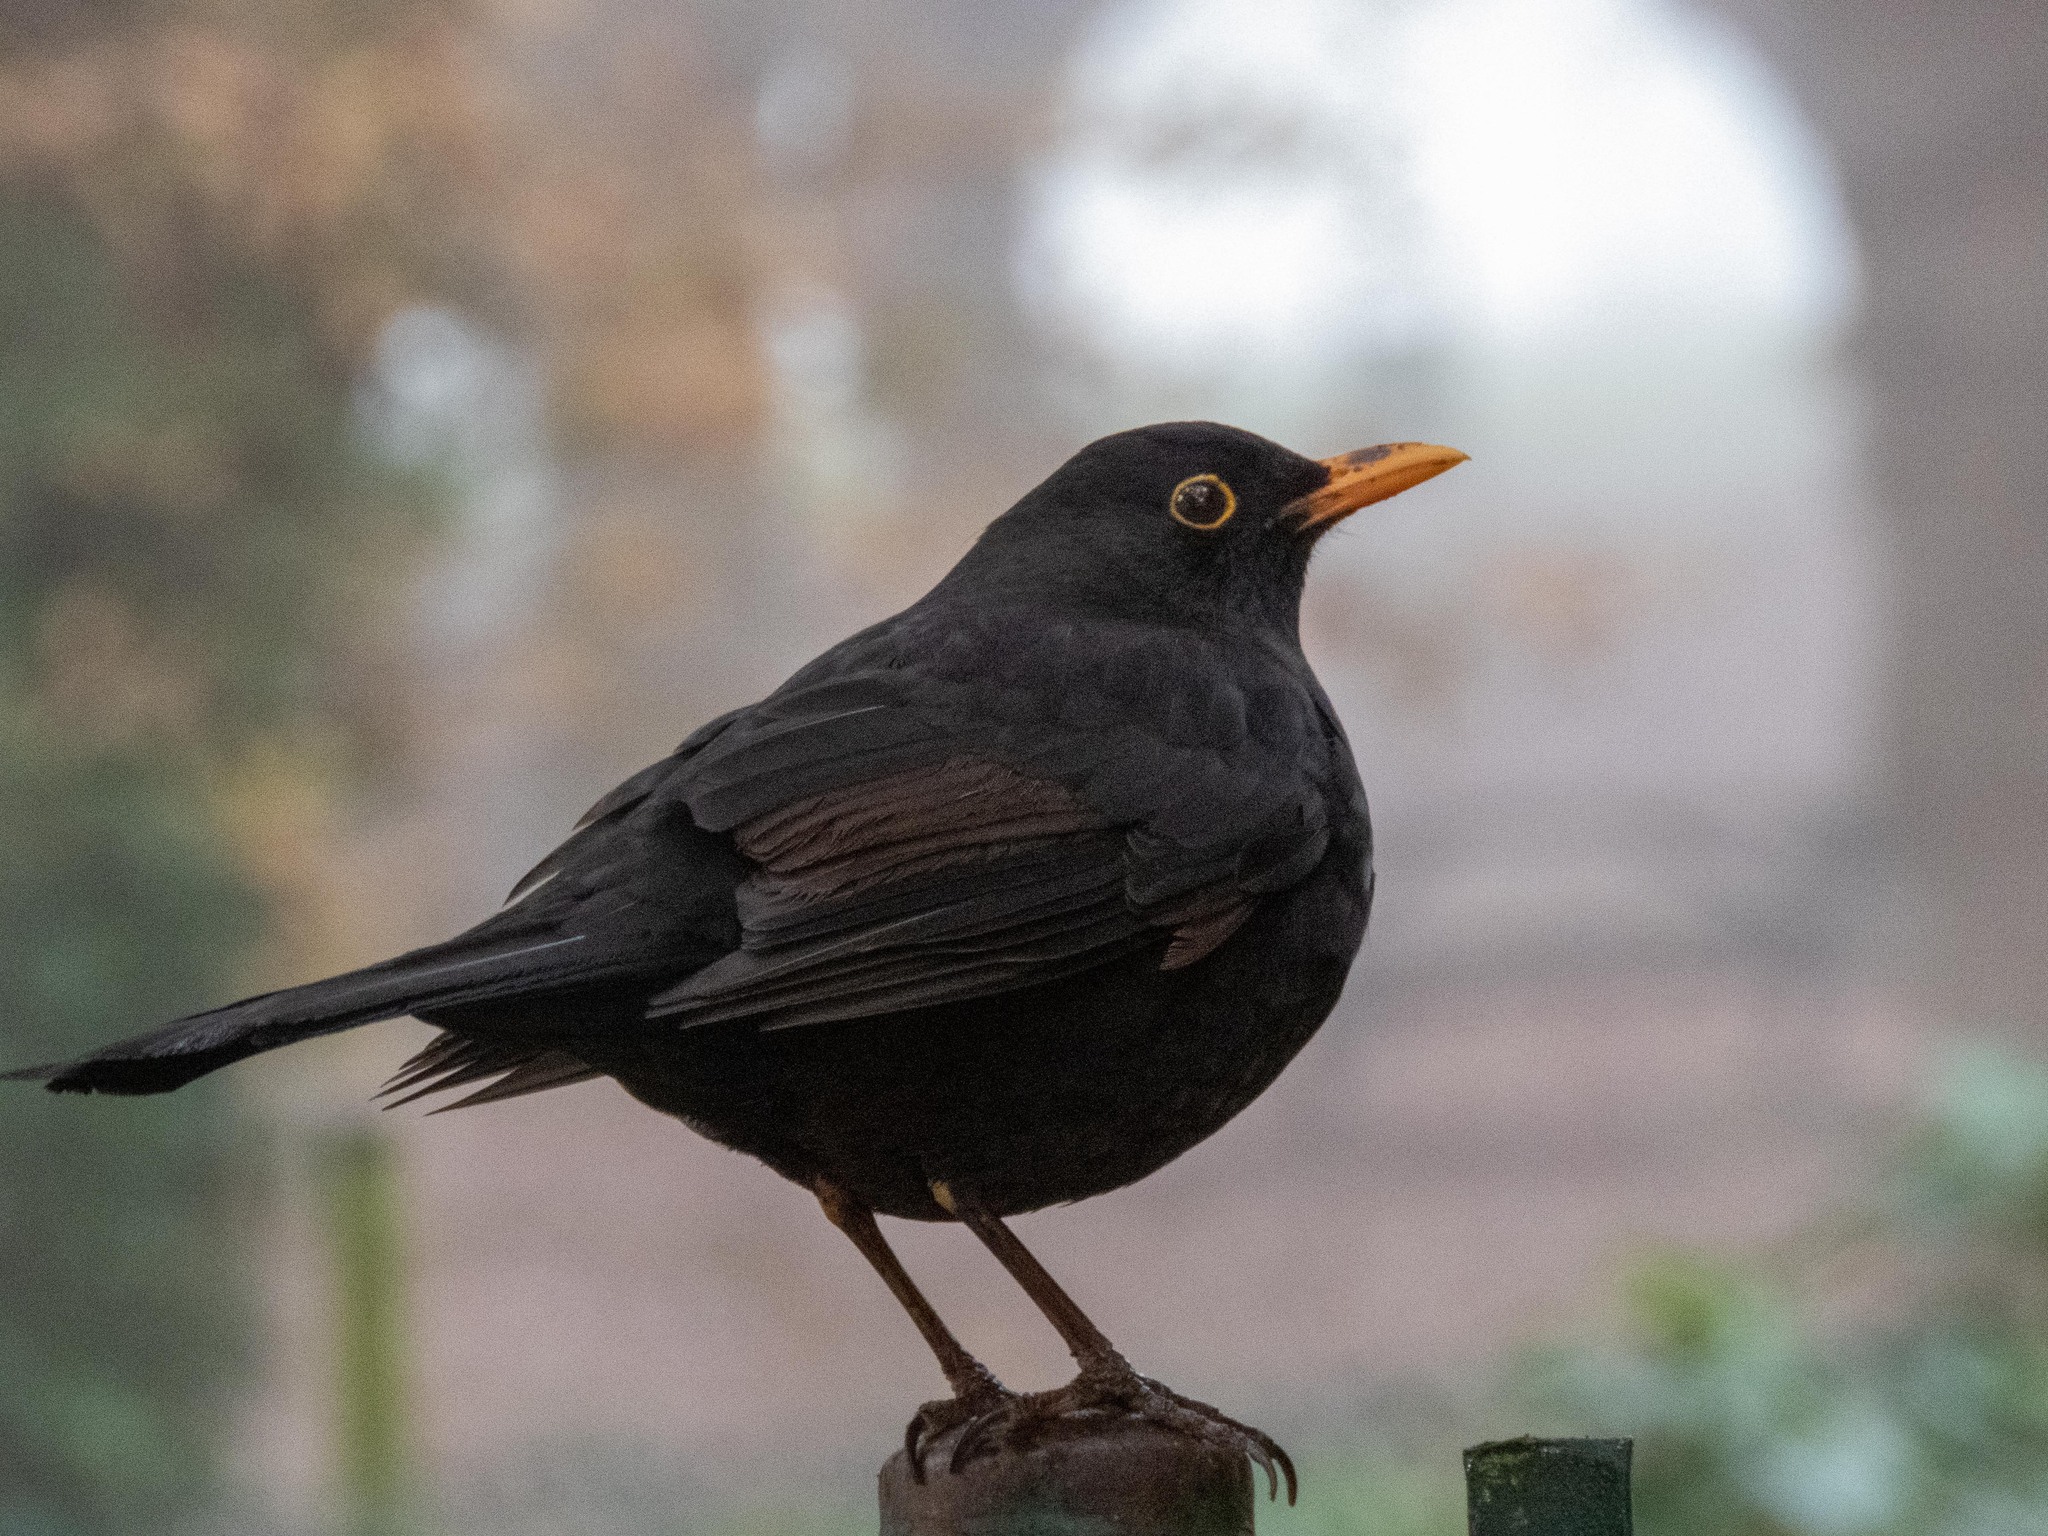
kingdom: Animalia
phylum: Chordata
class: Aves
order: Passeriformes
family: Turdidae
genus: Turdus
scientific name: Turdus merula
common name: Common blackbird
